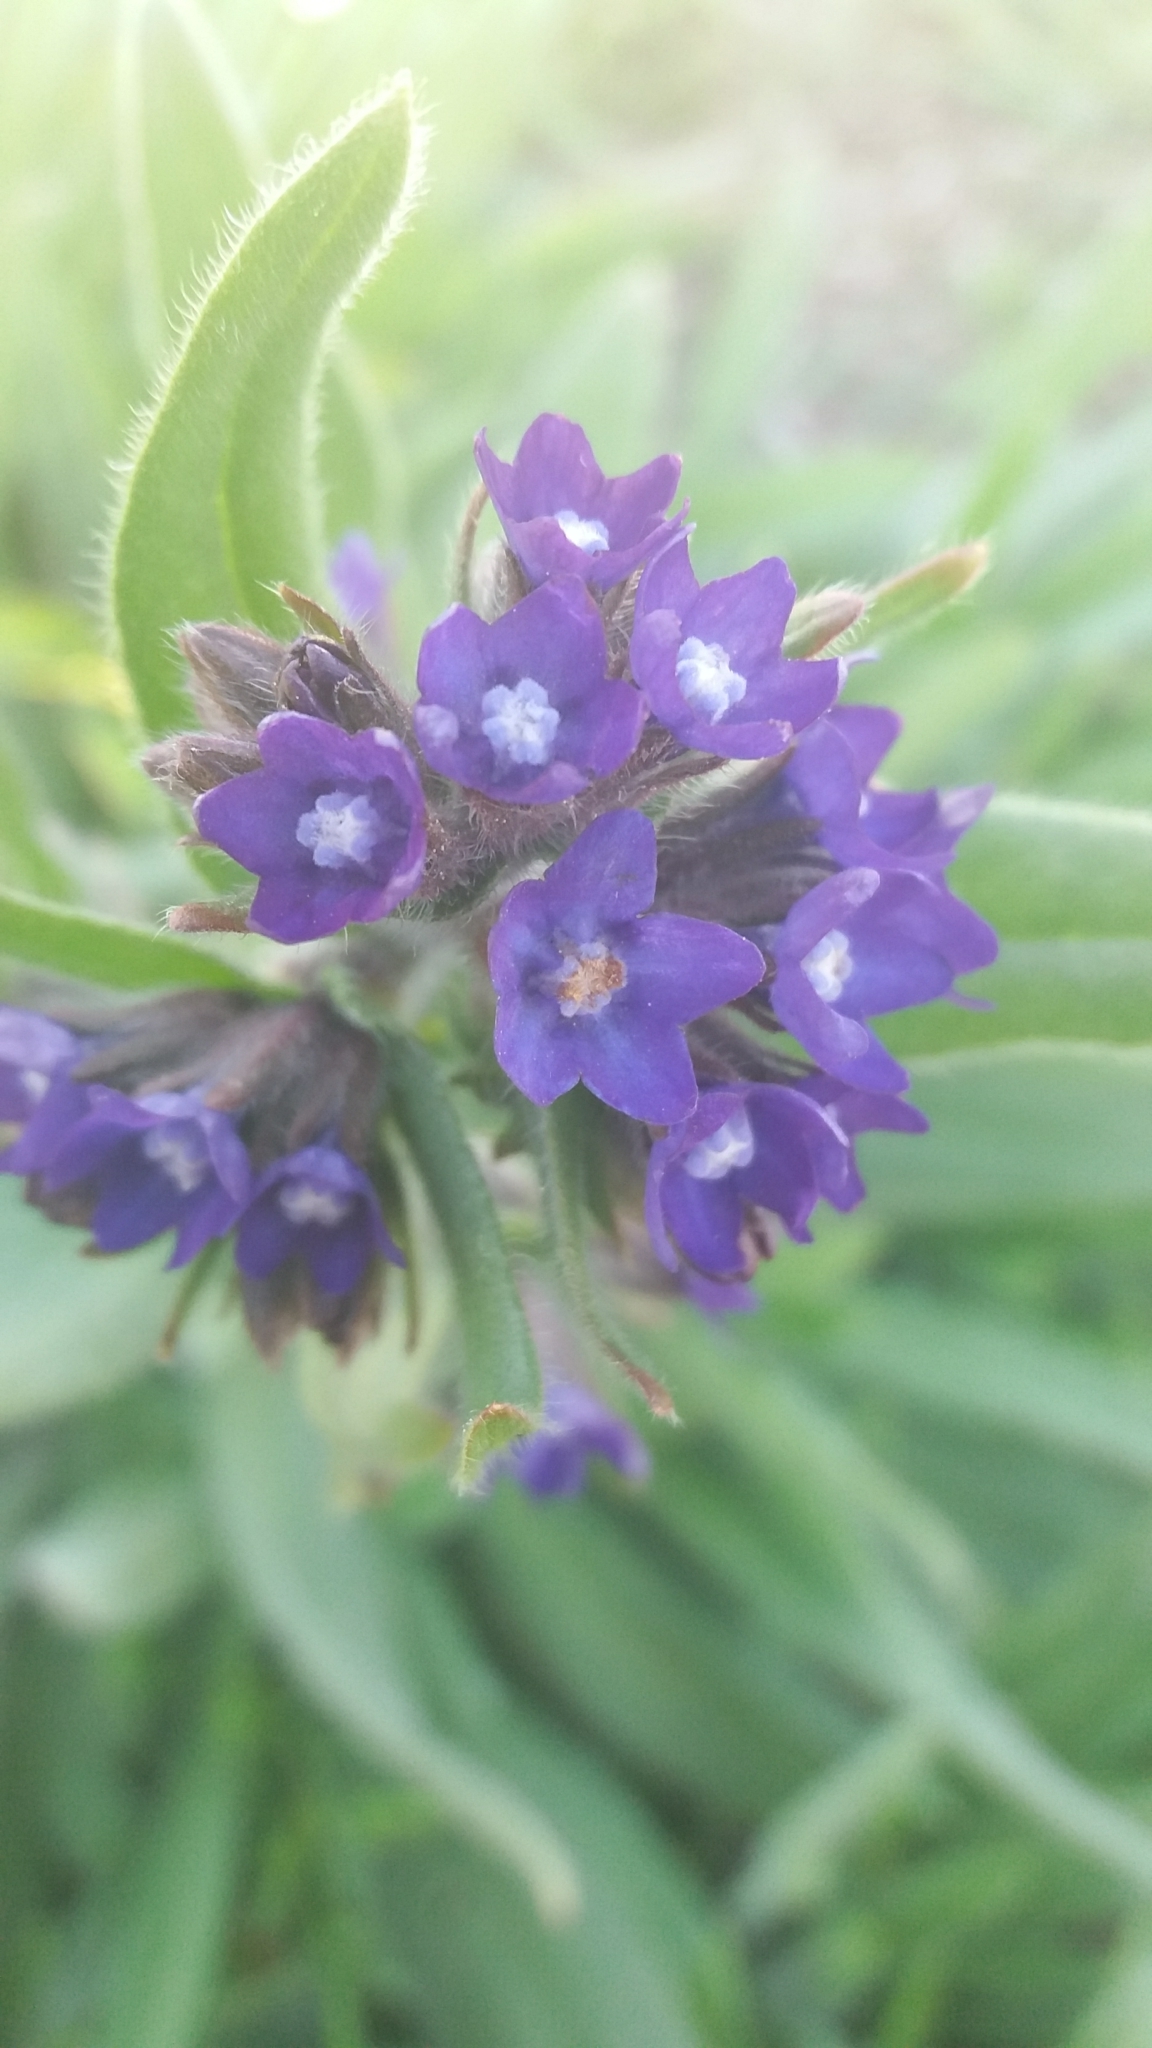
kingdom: Plantae
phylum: Tracheophyta
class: Magnoliopsida
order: Boraginales
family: Boraginaceae
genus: Anchusa
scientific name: Anchusa officinalis
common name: Alkanet
